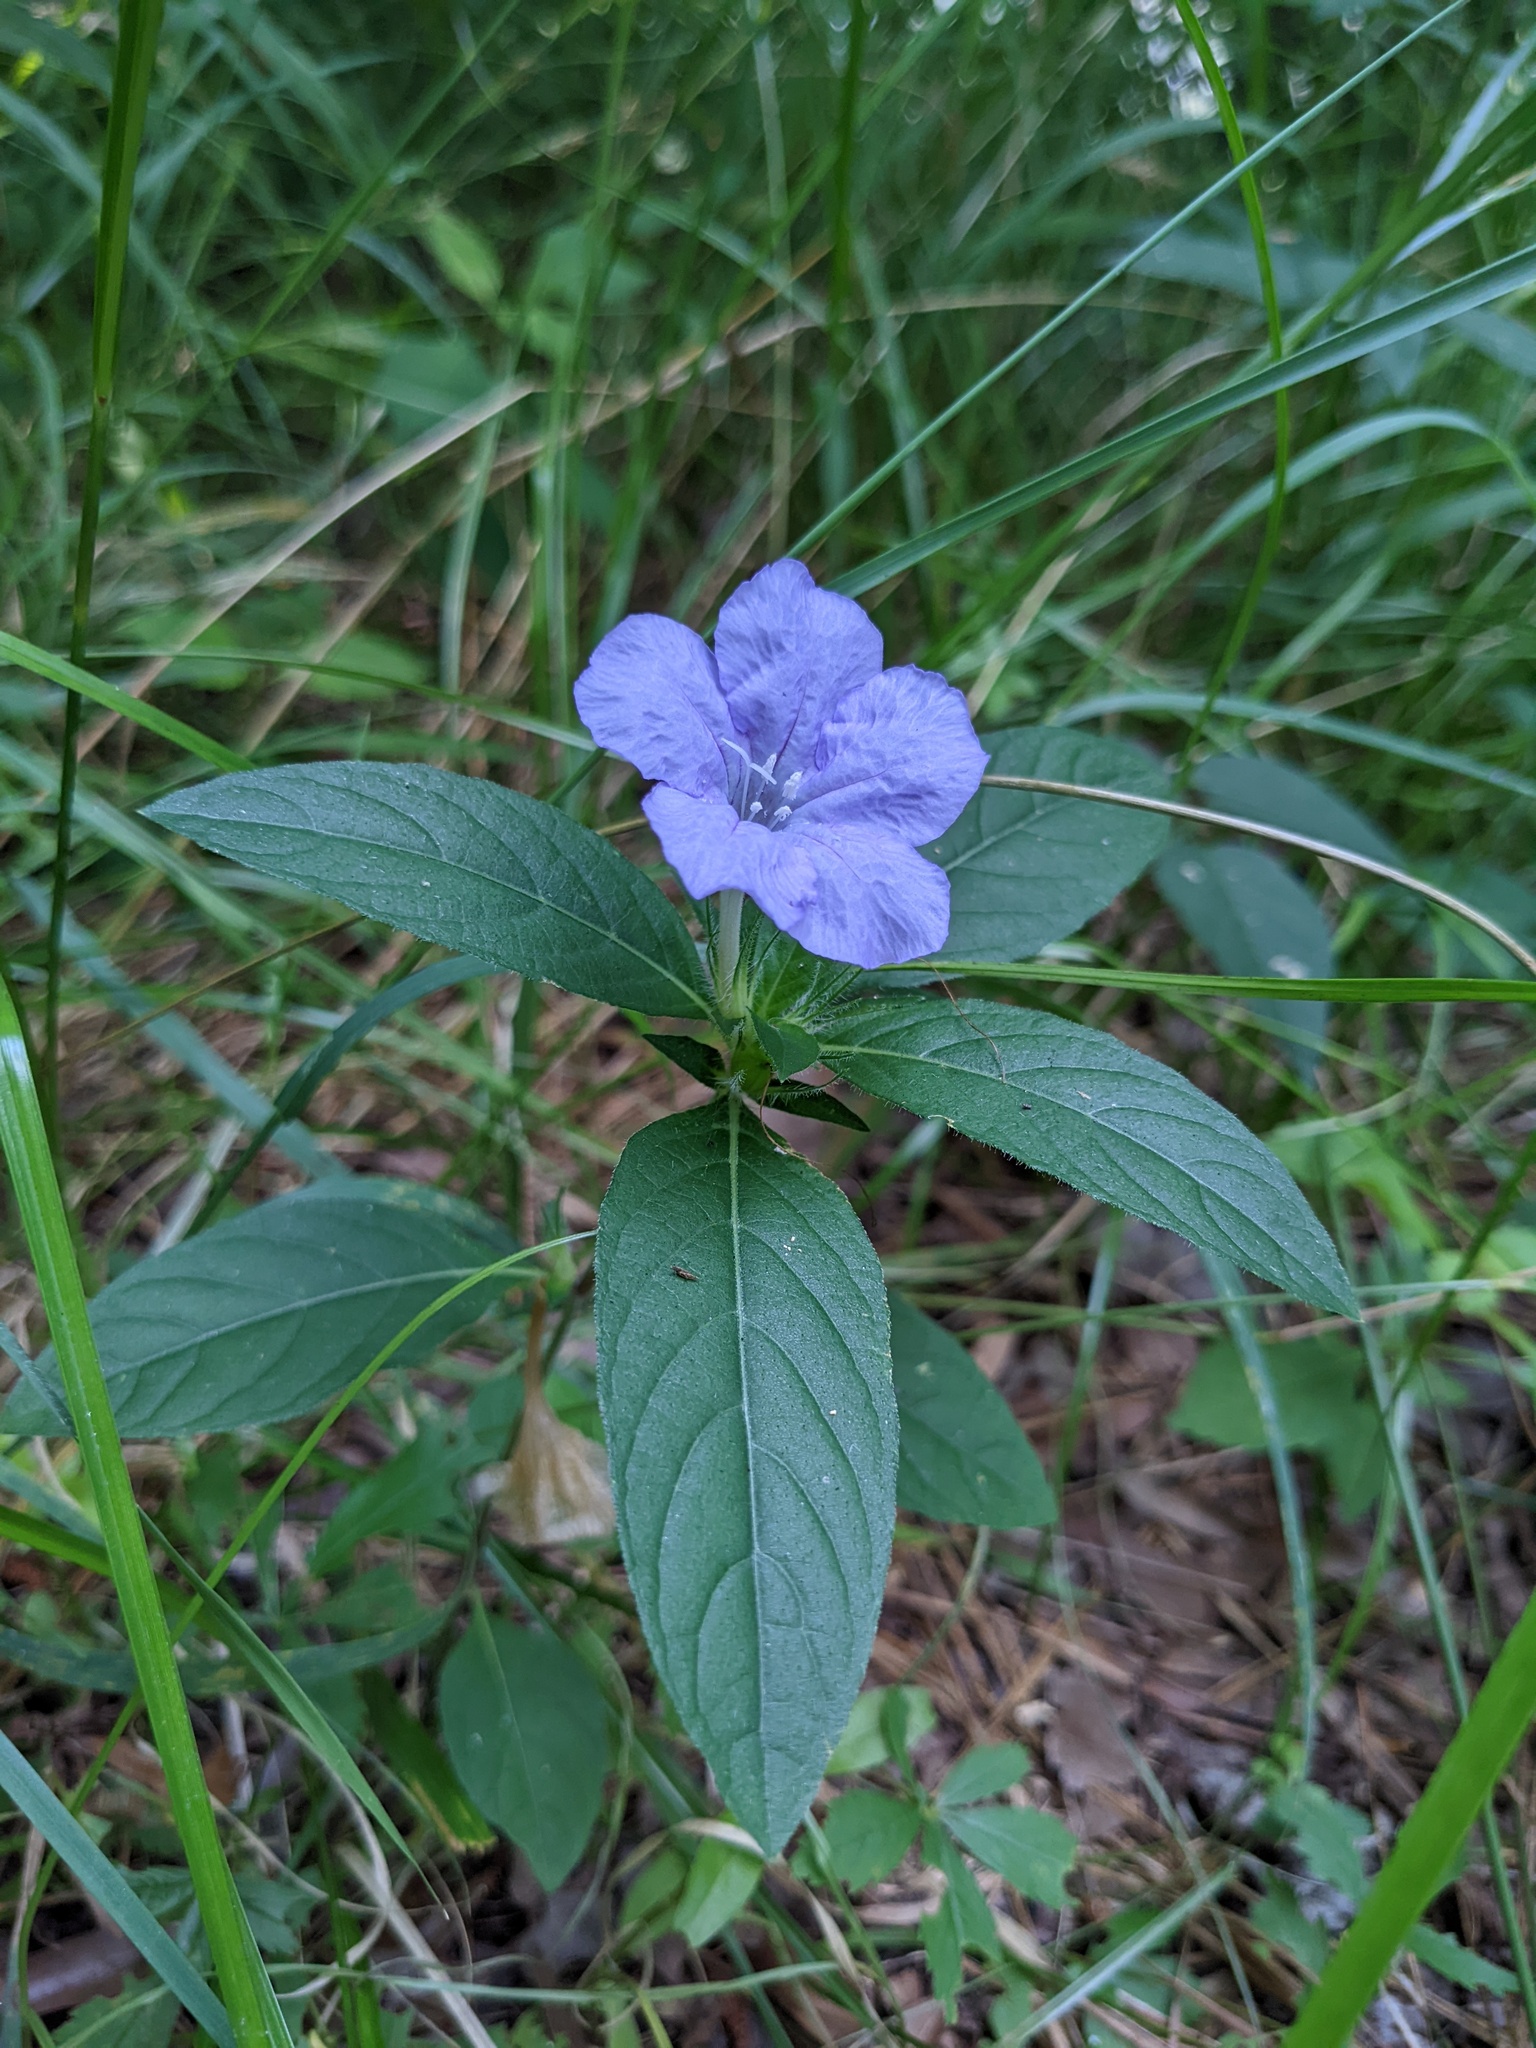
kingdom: Plantae
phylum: Tracheophyta
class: Magnoliopsida
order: Lamiales
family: Acanthaceae
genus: Ruellia
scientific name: Ruellia caroliniensis
